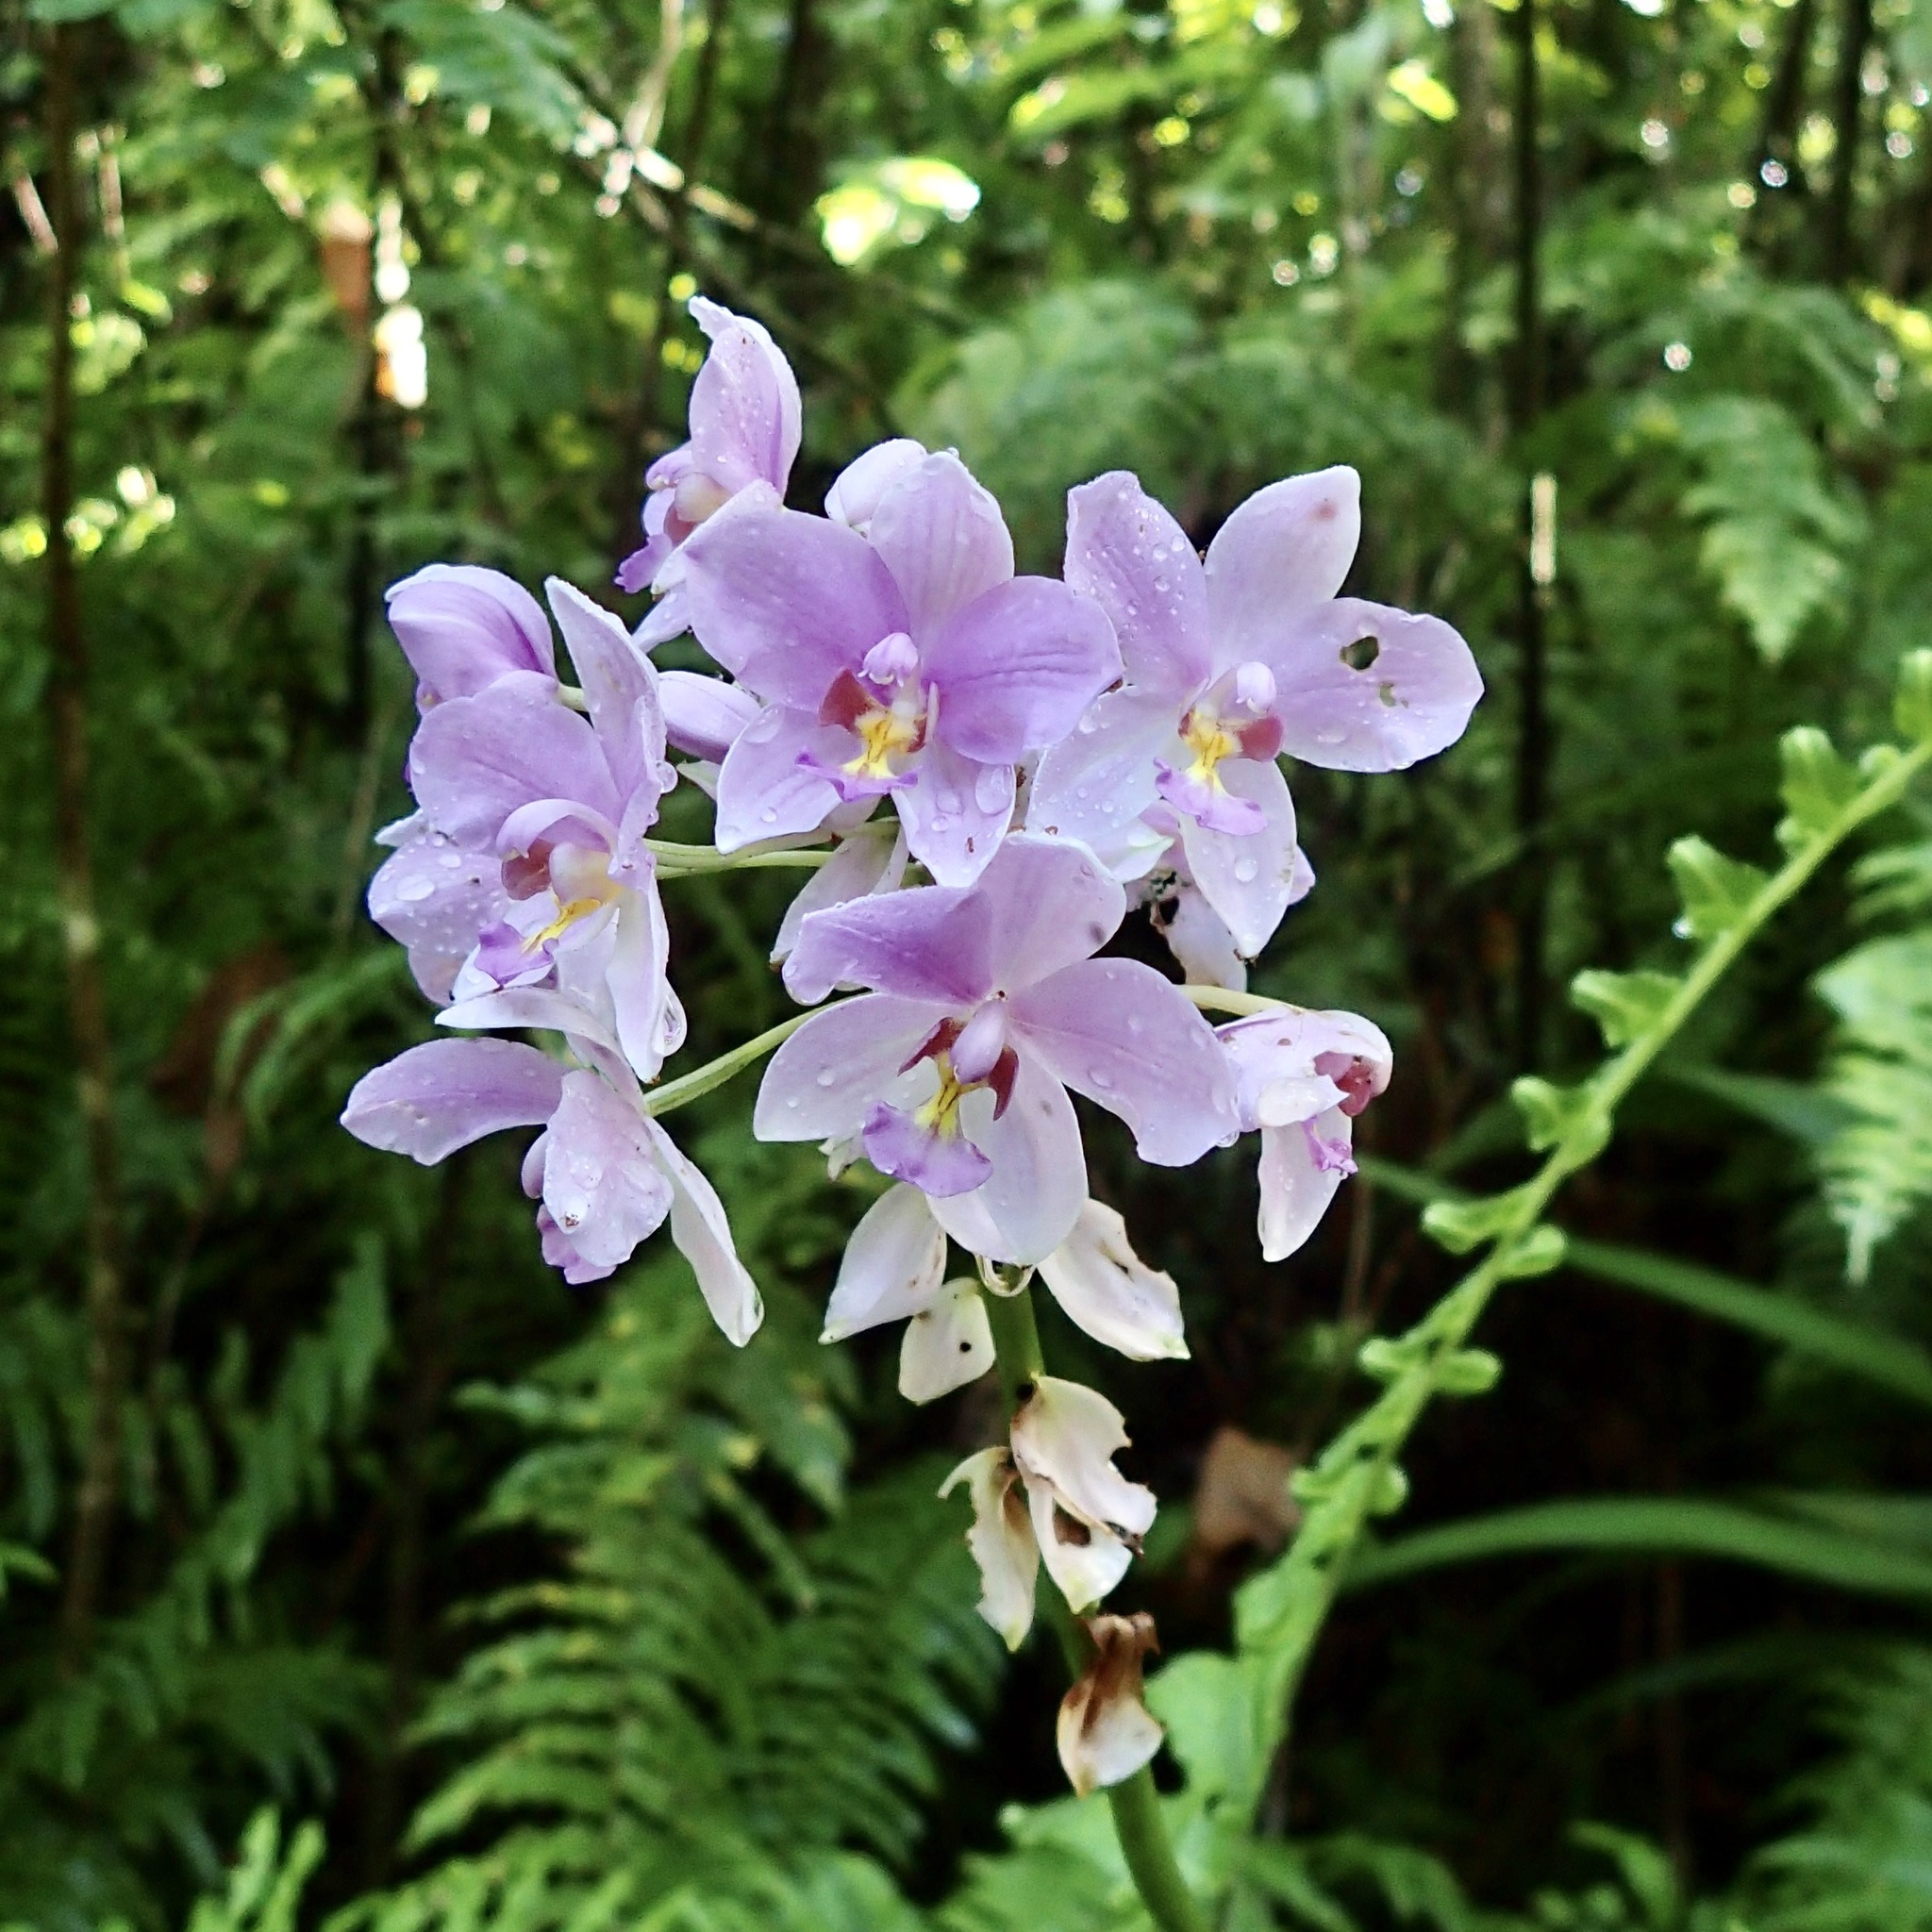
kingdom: Plantae
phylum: Tracheophyta
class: Liliopsida
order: Asparagales
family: Orchidaceae
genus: Spathoglottis
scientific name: Spathoglottis plicata
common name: Philippine ground orchid
